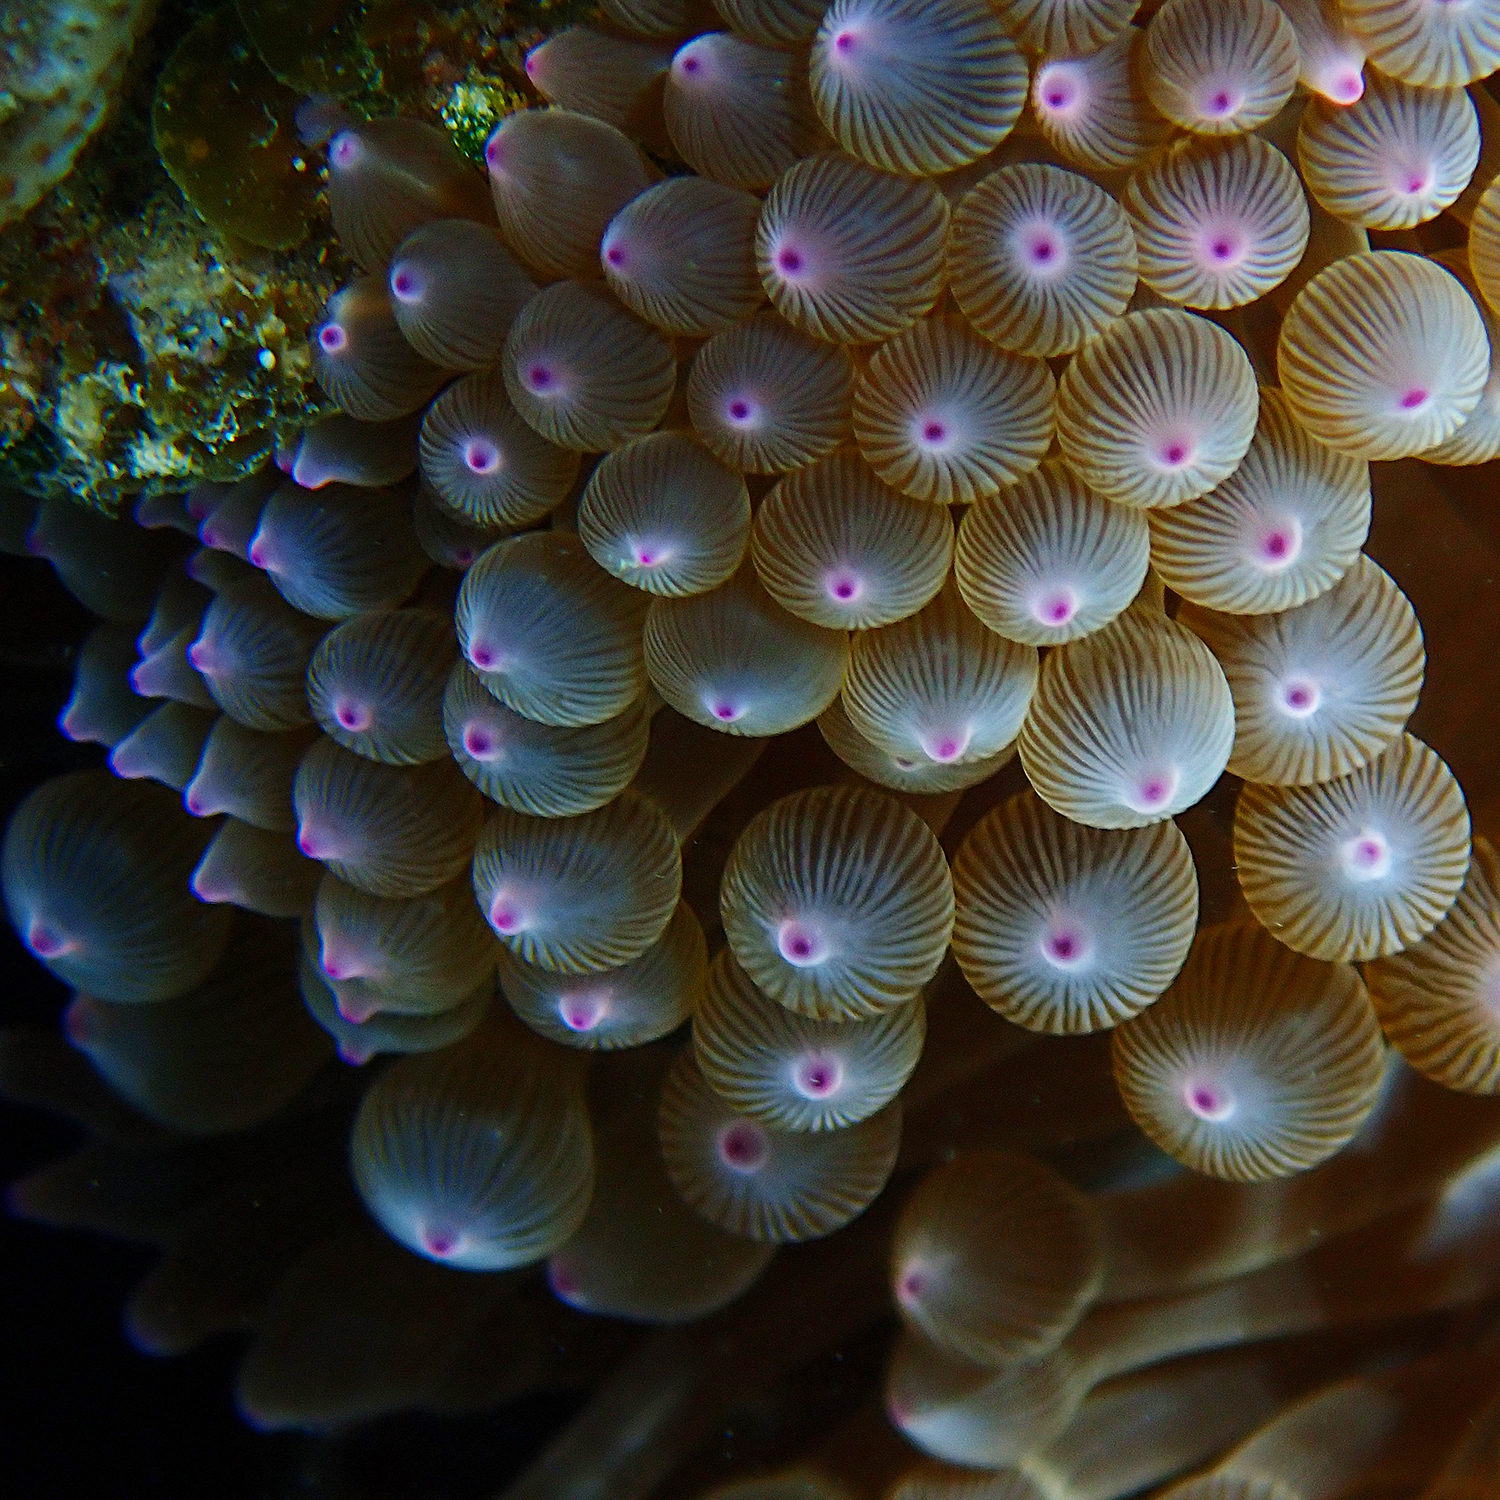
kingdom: Animalia
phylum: Cnidaria
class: Anthozoa
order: Actiniaria
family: Actiniidae
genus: Entacmaea
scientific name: Entacmaea quadricolor
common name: Bulb tentacle sea anemone
